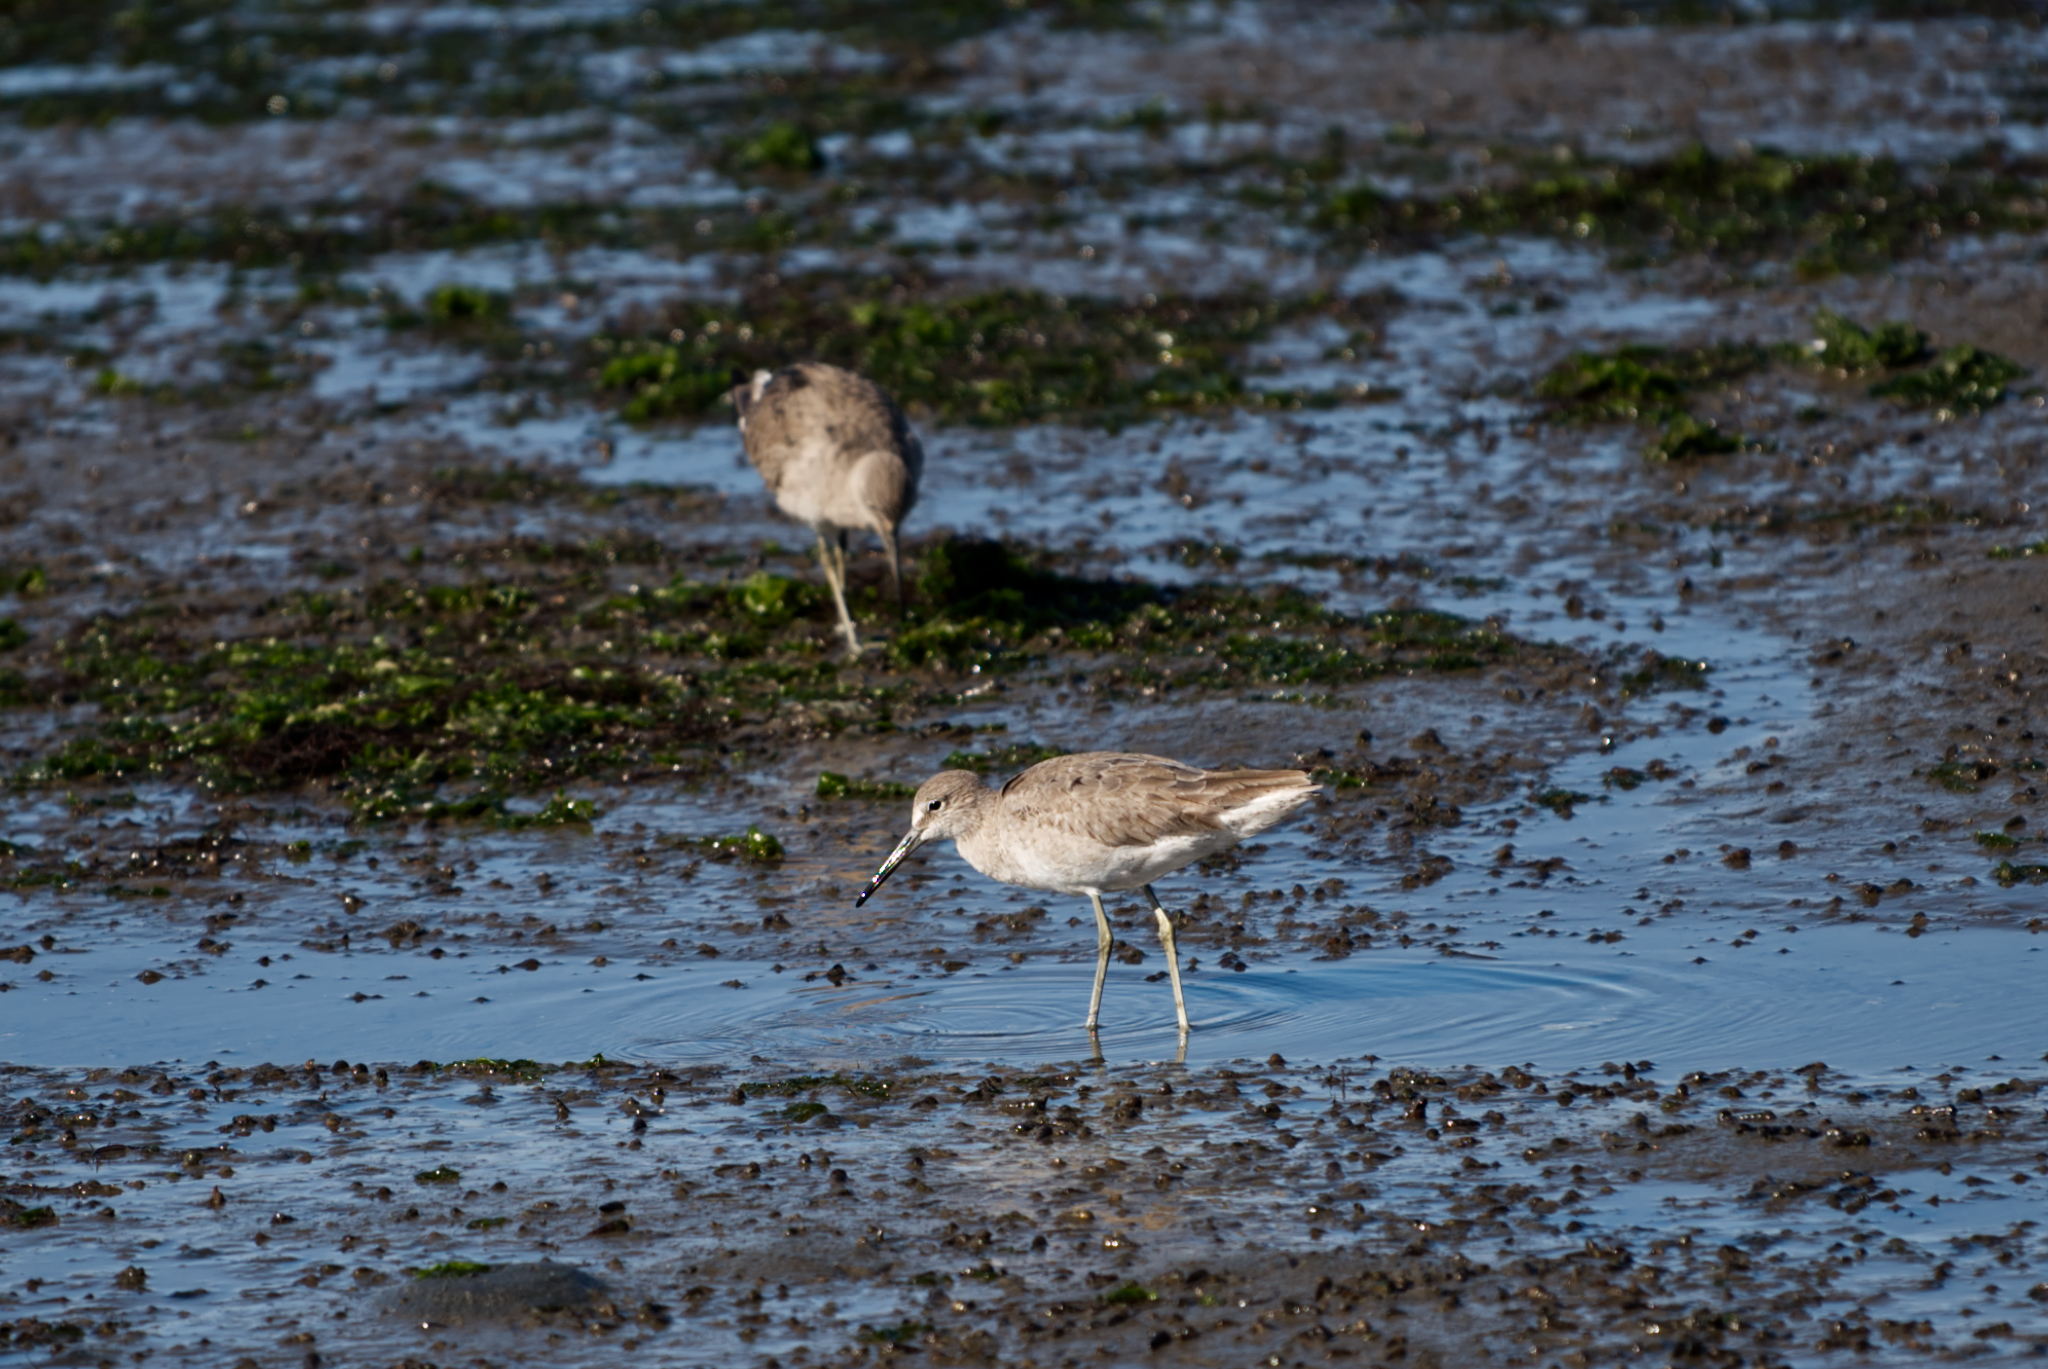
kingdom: Animalia
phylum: Chordata
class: Aves
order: Charadriiformes
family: Scolopacidae
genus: Tringa
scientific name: Tringa semipalmata
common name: Willet
